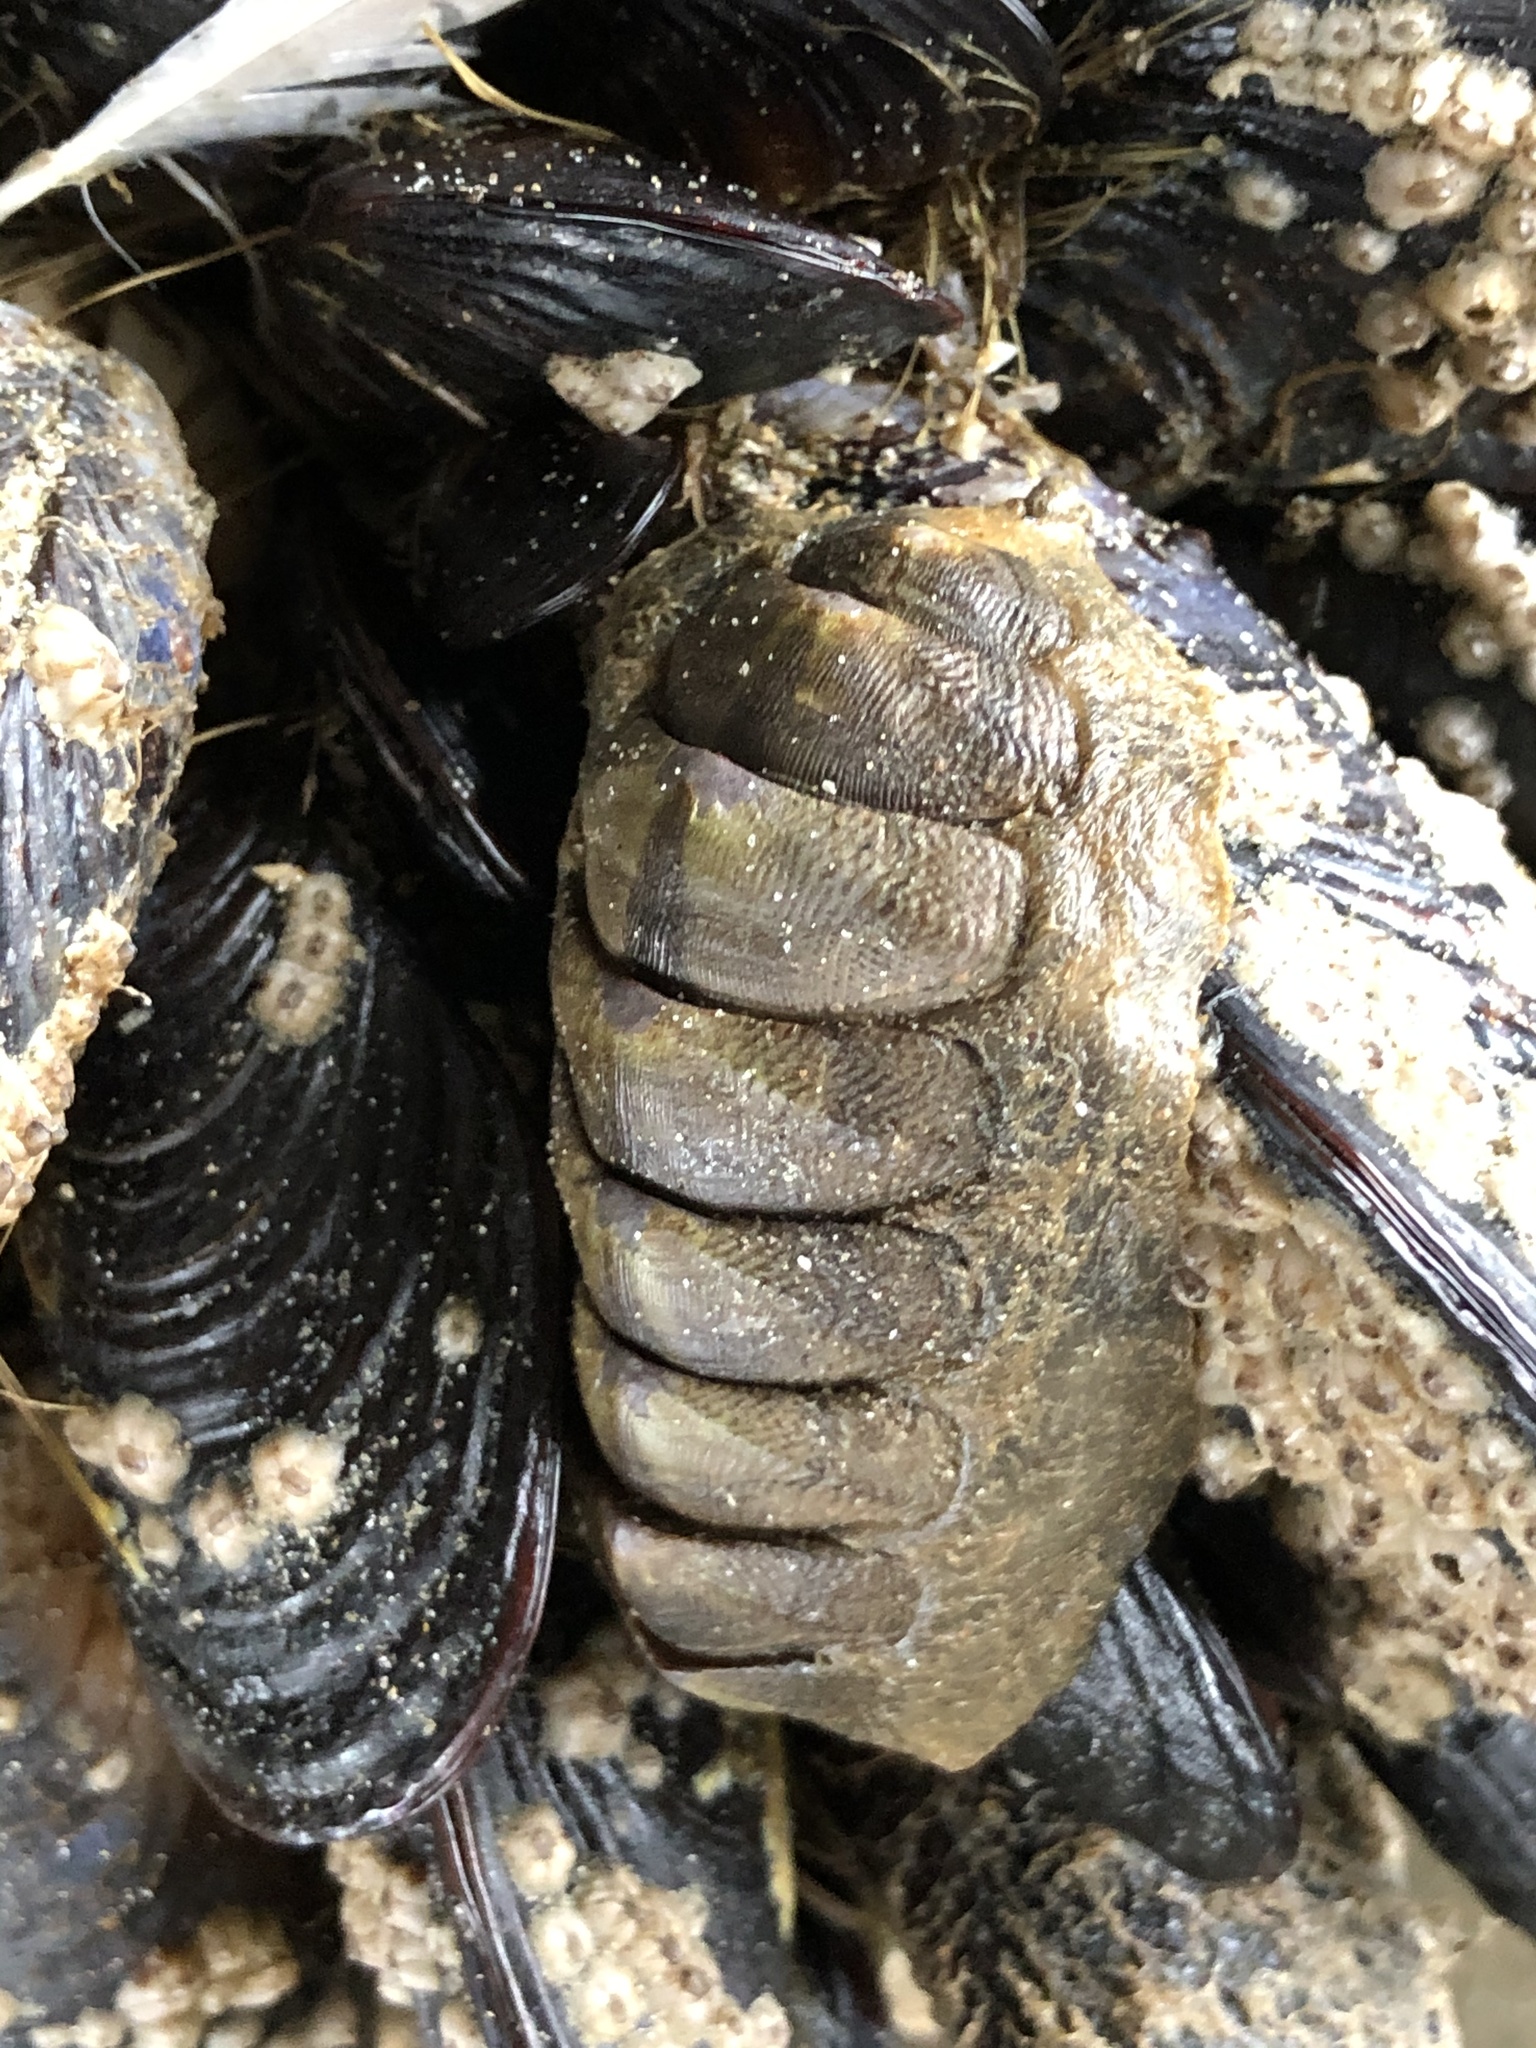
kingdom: Animalia
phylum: Mollusca
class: Polyplacophora
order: Chitonida
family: Mopaliidae
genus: Mopalia
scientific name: Mopalia hindsii
